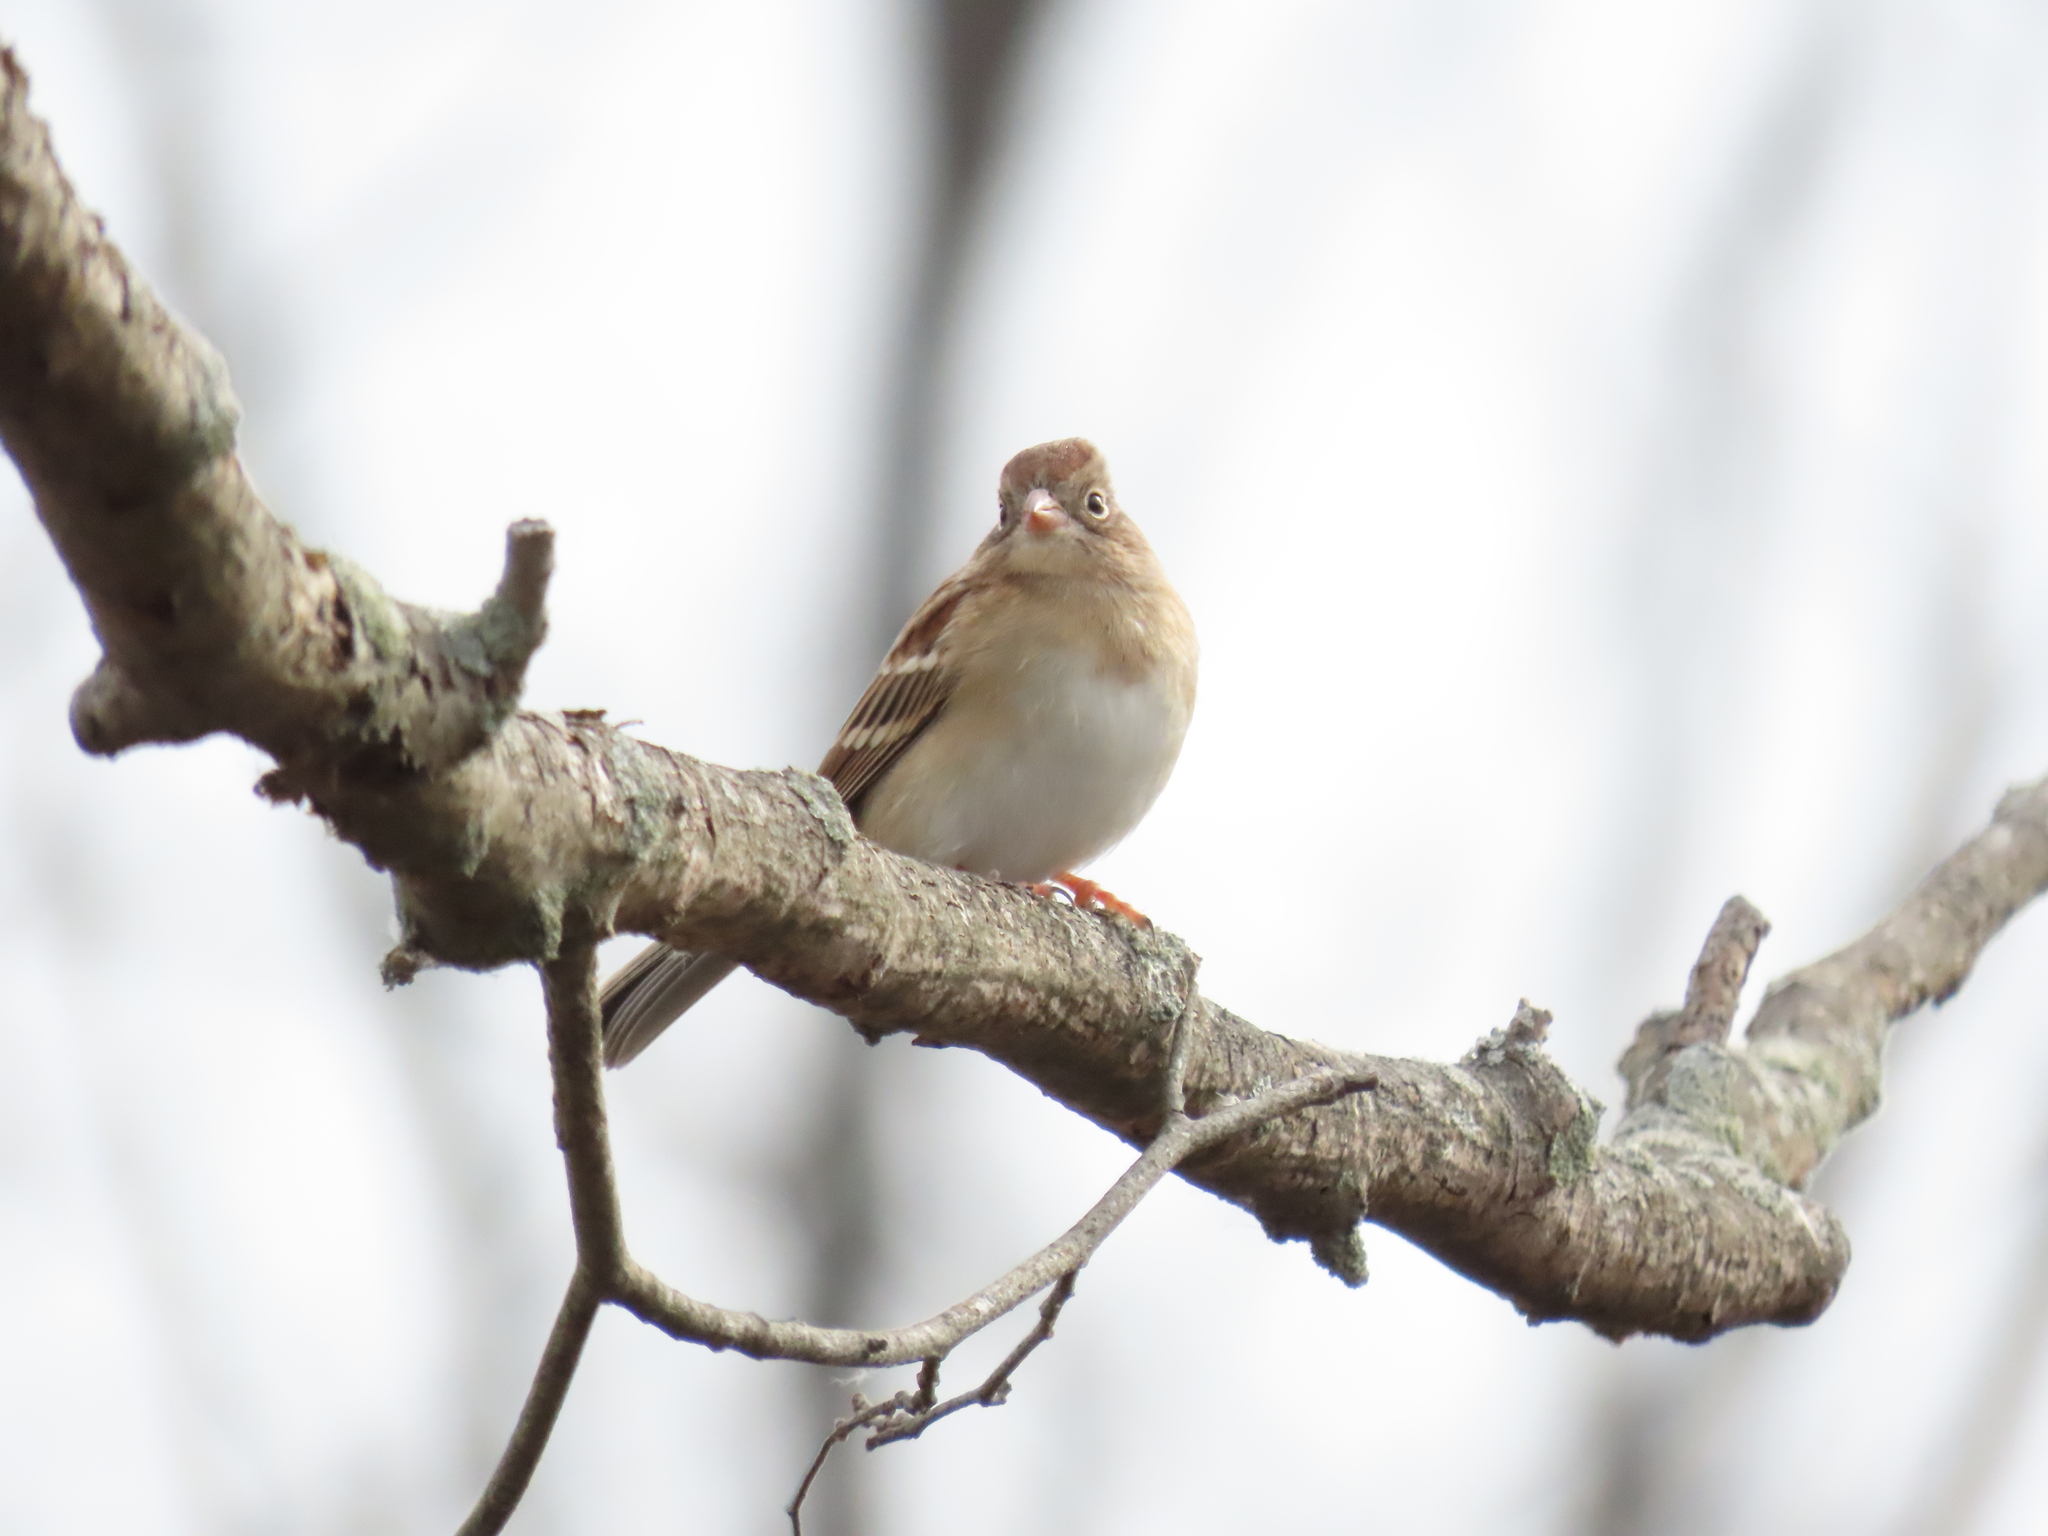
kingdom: Animalia
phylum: Chordata
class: Aves
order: Passeriformes
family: Passerellidae
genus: Spizella
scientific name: Spizella pusilla
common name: Field sparrow
